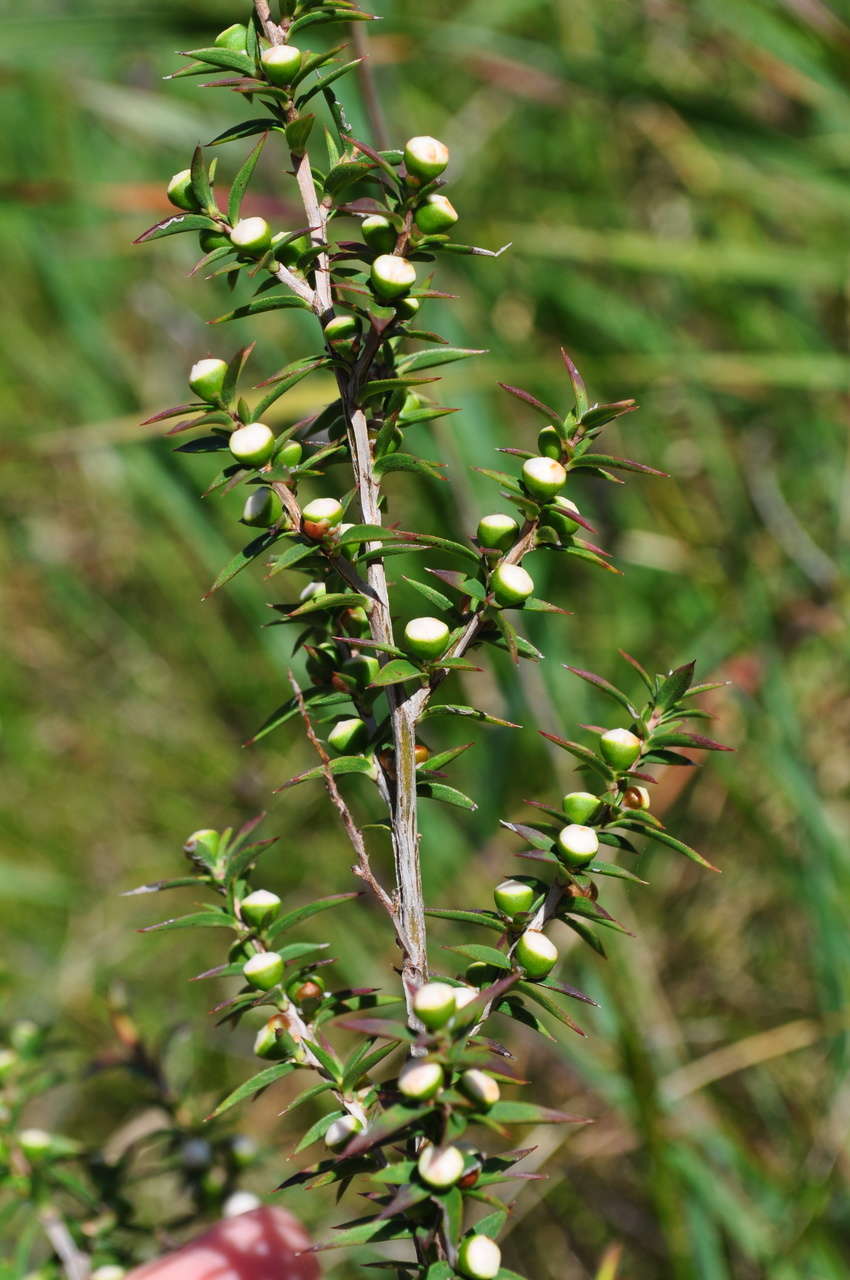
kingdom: Plantae
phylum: Tracheophyta
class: Magnoliopsida
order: Myrtales
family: Myrtaceae
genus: Leptospermum
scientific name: Leptospermum continentale
